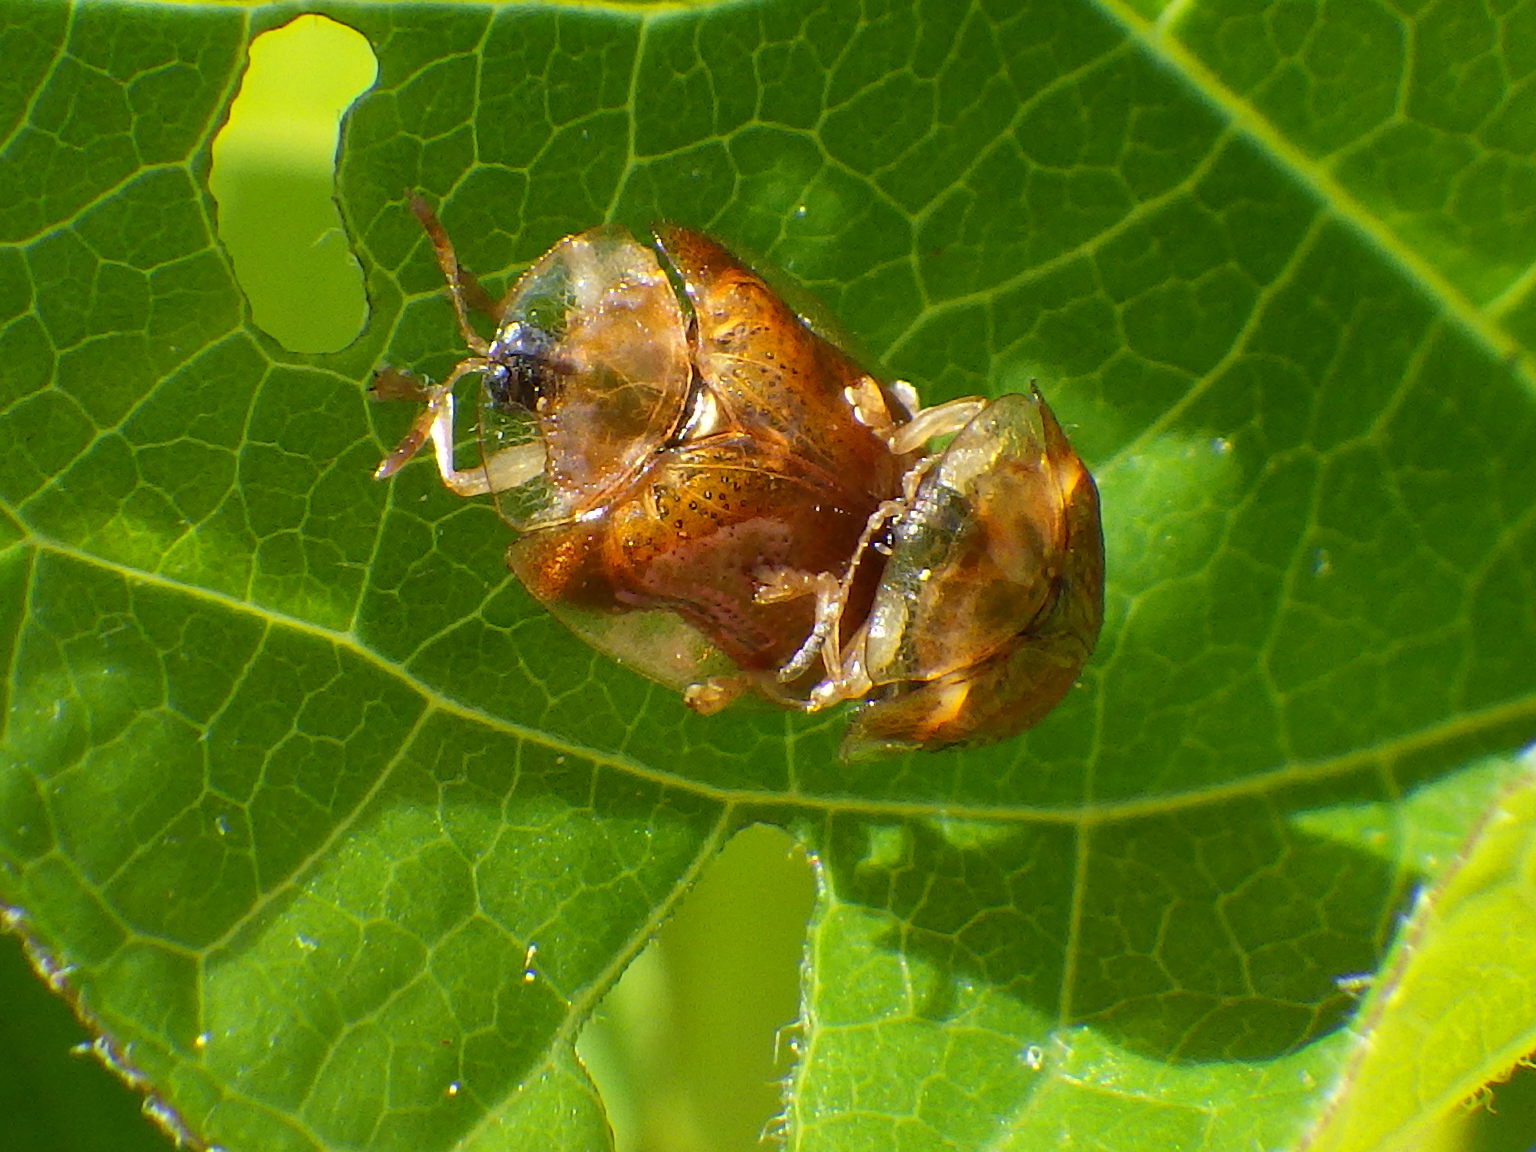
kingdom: Animalia
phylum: Arthropoda
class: Insecta
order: Coleoptera
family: Chrysomelidae
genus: Charidotella
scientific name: Charidotella purpurata
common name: Small orange tortoise beetle
